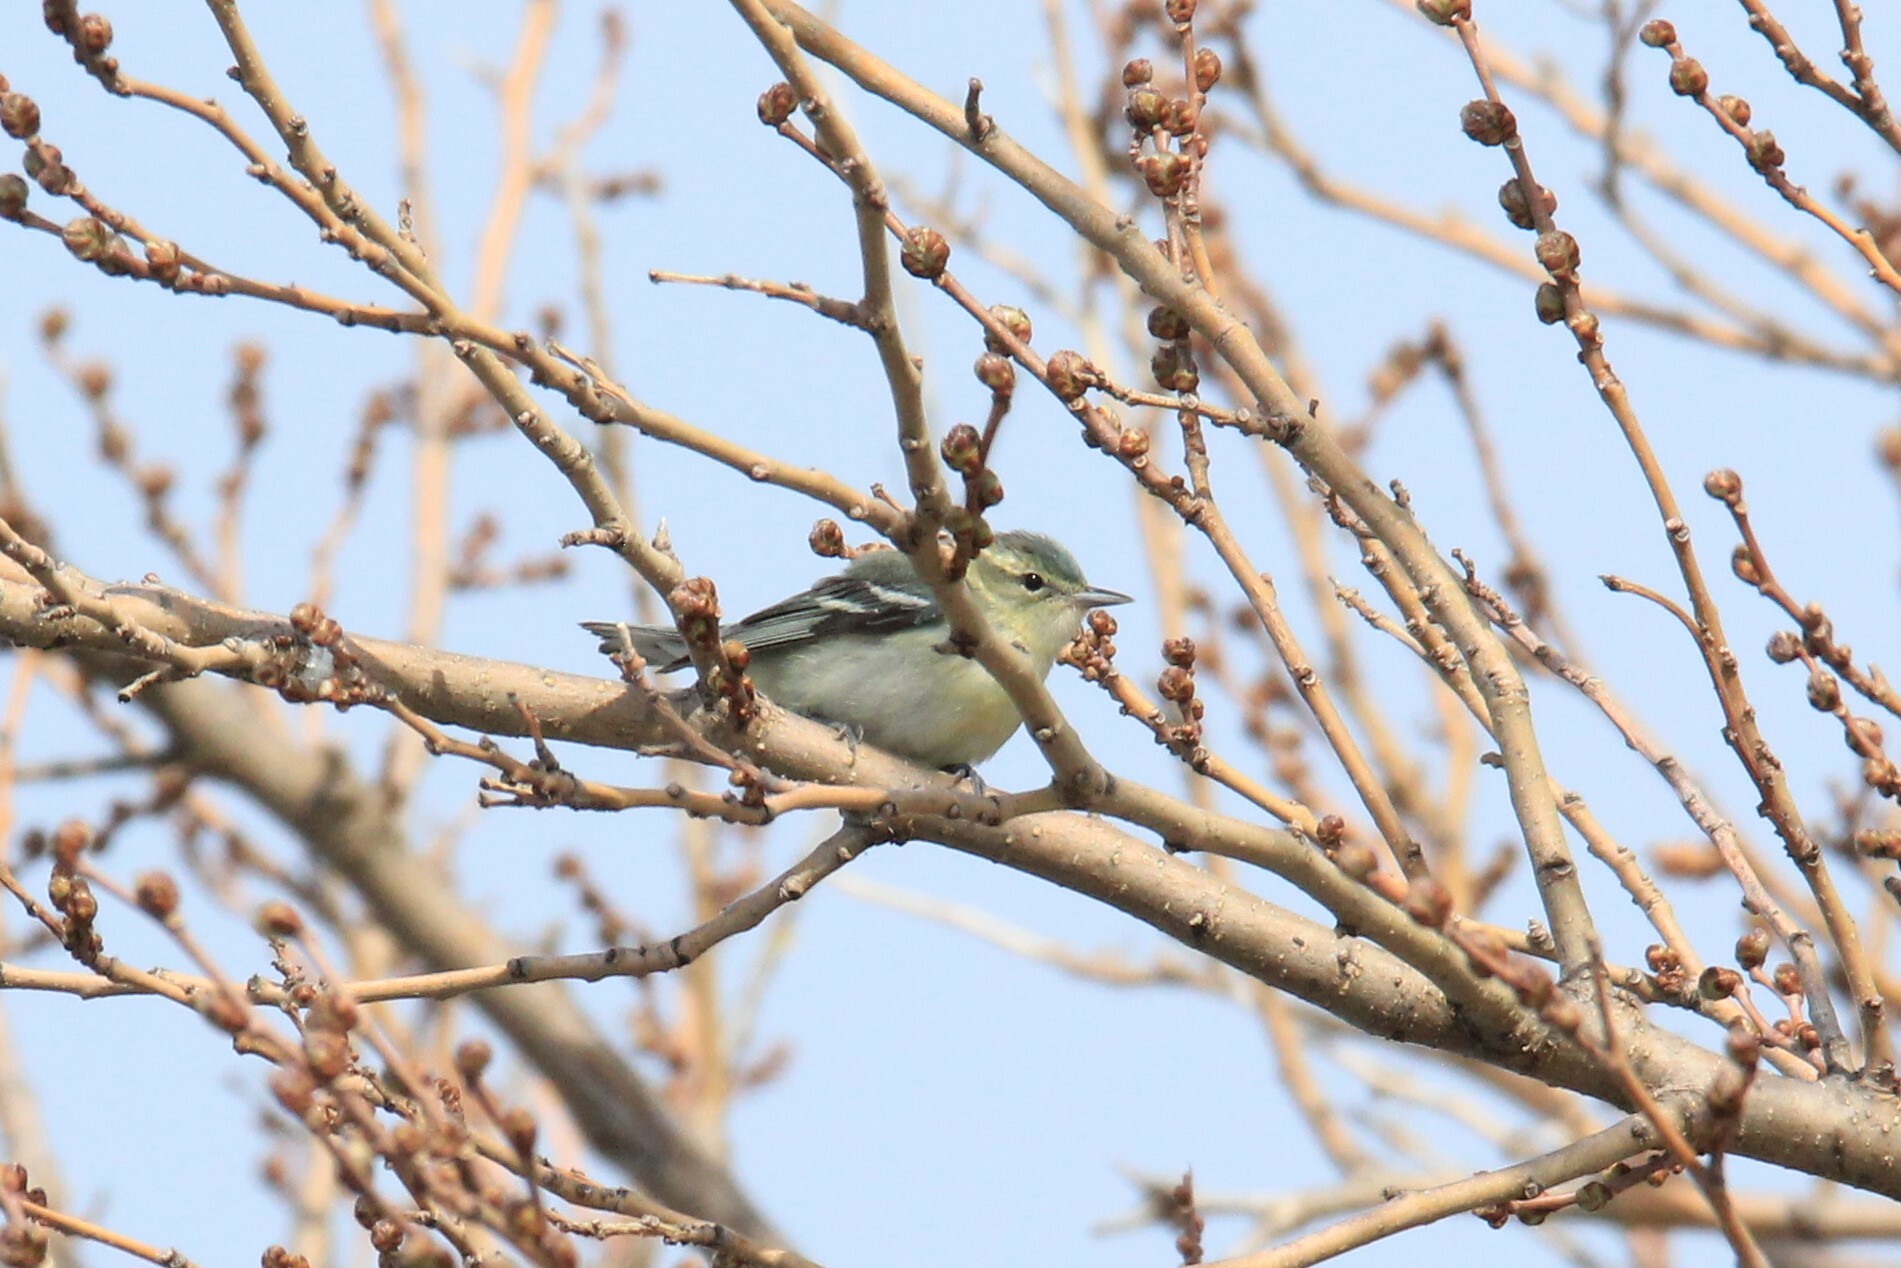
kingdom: Animalia
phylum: Chordata
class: Aves
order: Passeriformes
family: Parulidae
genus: Setophaga
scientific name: Setophaga cerulea
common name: Cerulean warbler
